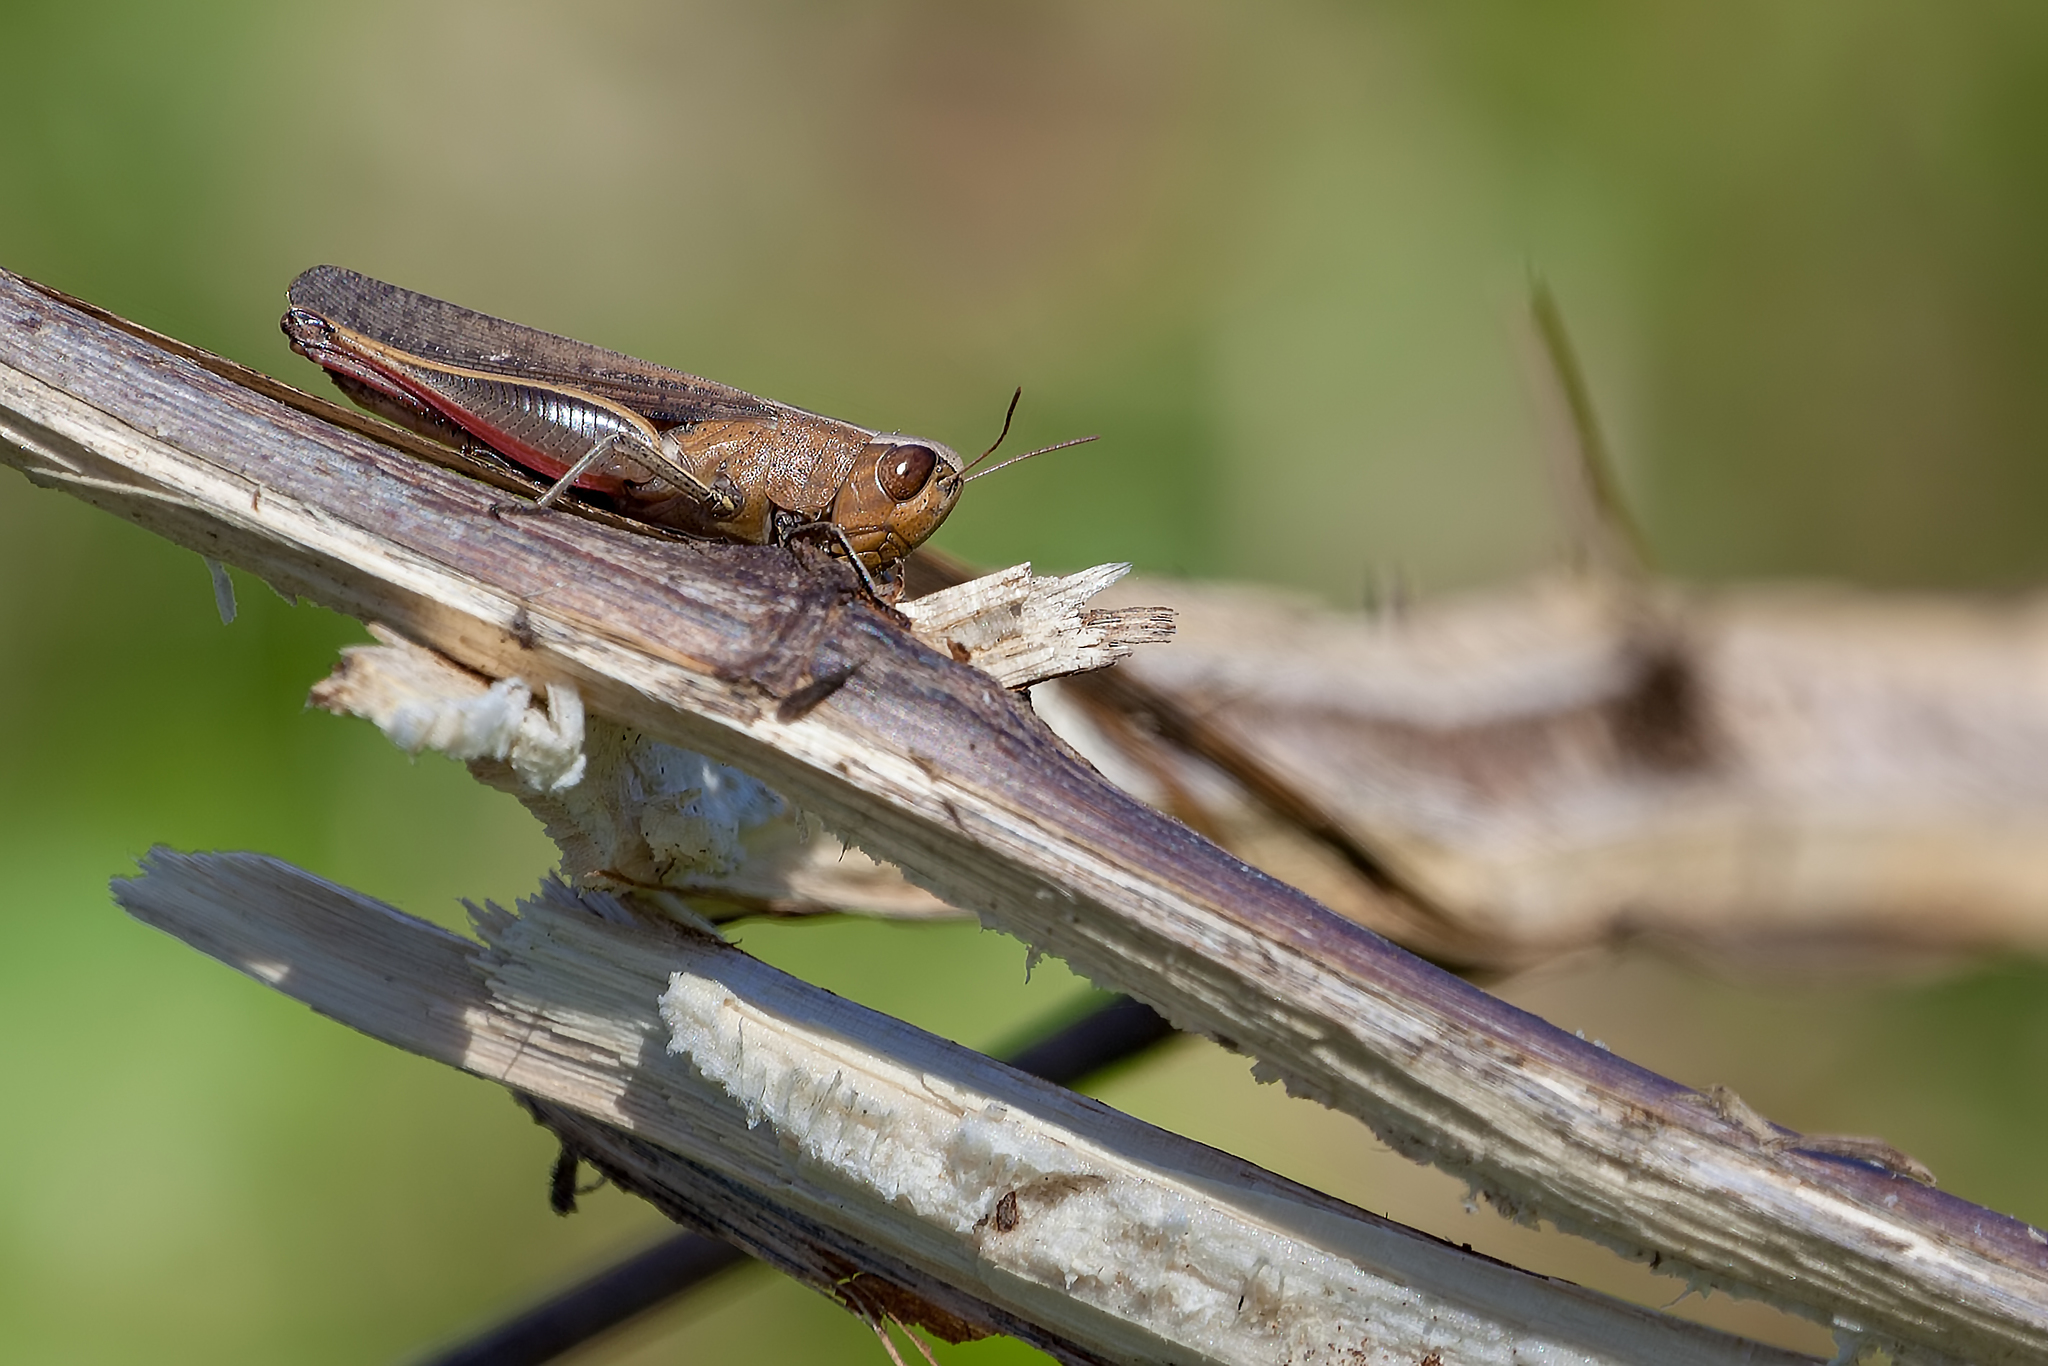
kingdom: Animalia
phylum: Arthropoda
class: Insecta
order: Orthoptera
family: Acrididae
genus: Amblytropidia
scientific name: Amblytropidia mysteca
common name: Brown winter grasshopper
